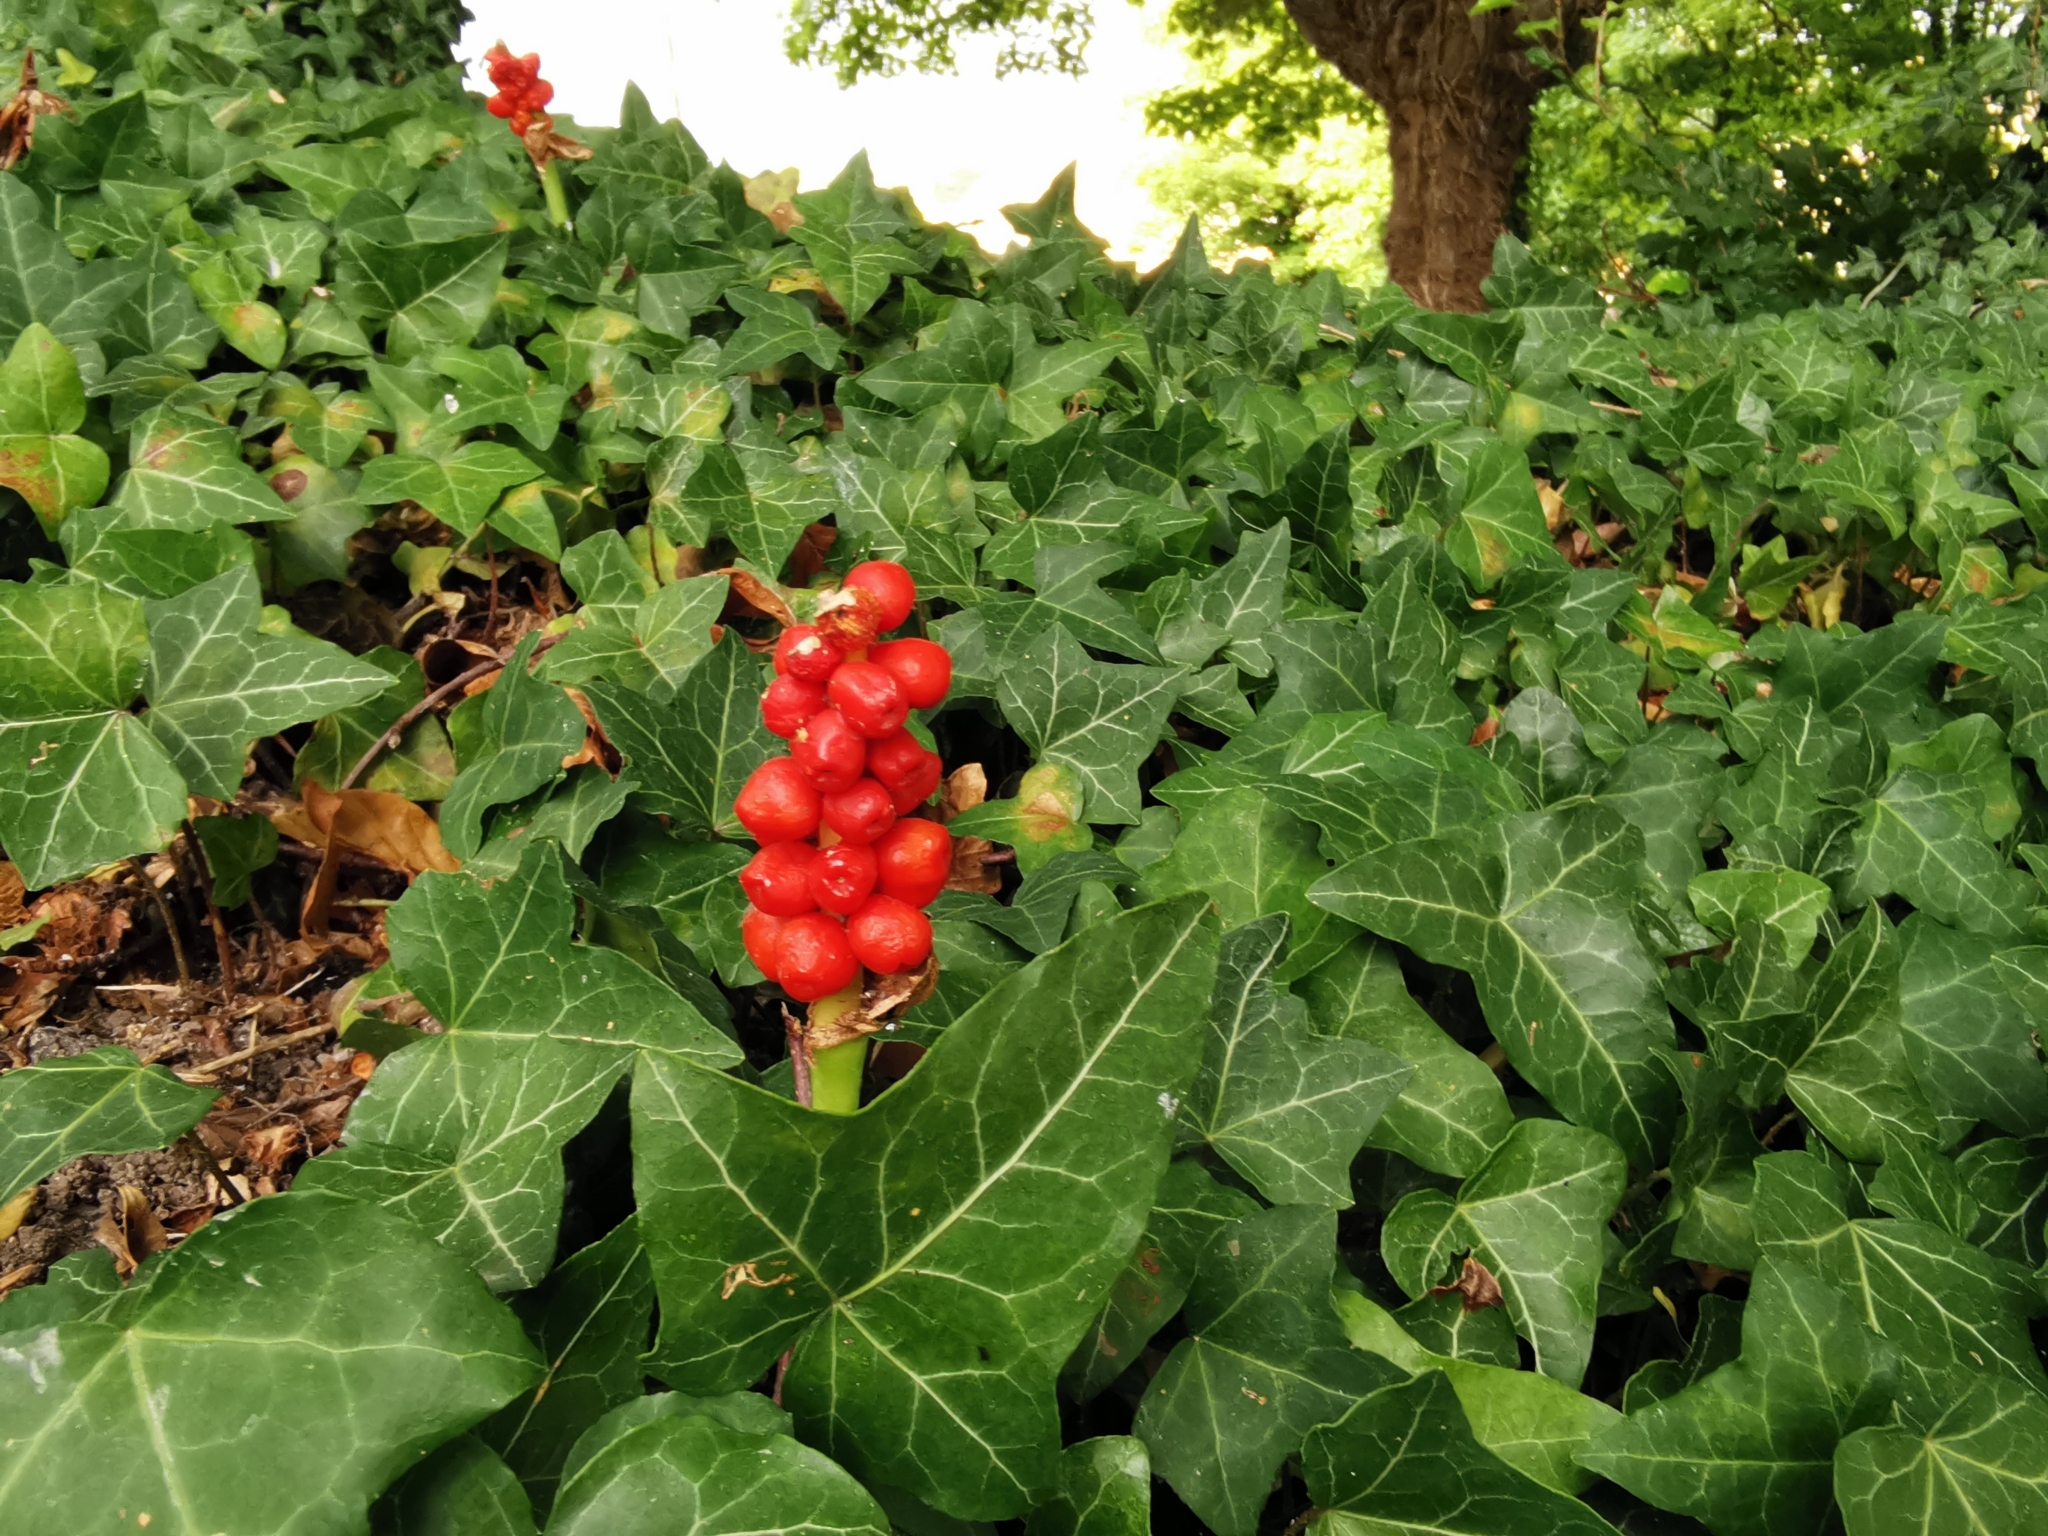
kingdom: Plantae
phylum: Tracheophyta
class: Liliopsida
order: Alismatales
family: Araceae
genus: Arum
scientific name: Arum maculatum
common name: Lords-and-ladies
